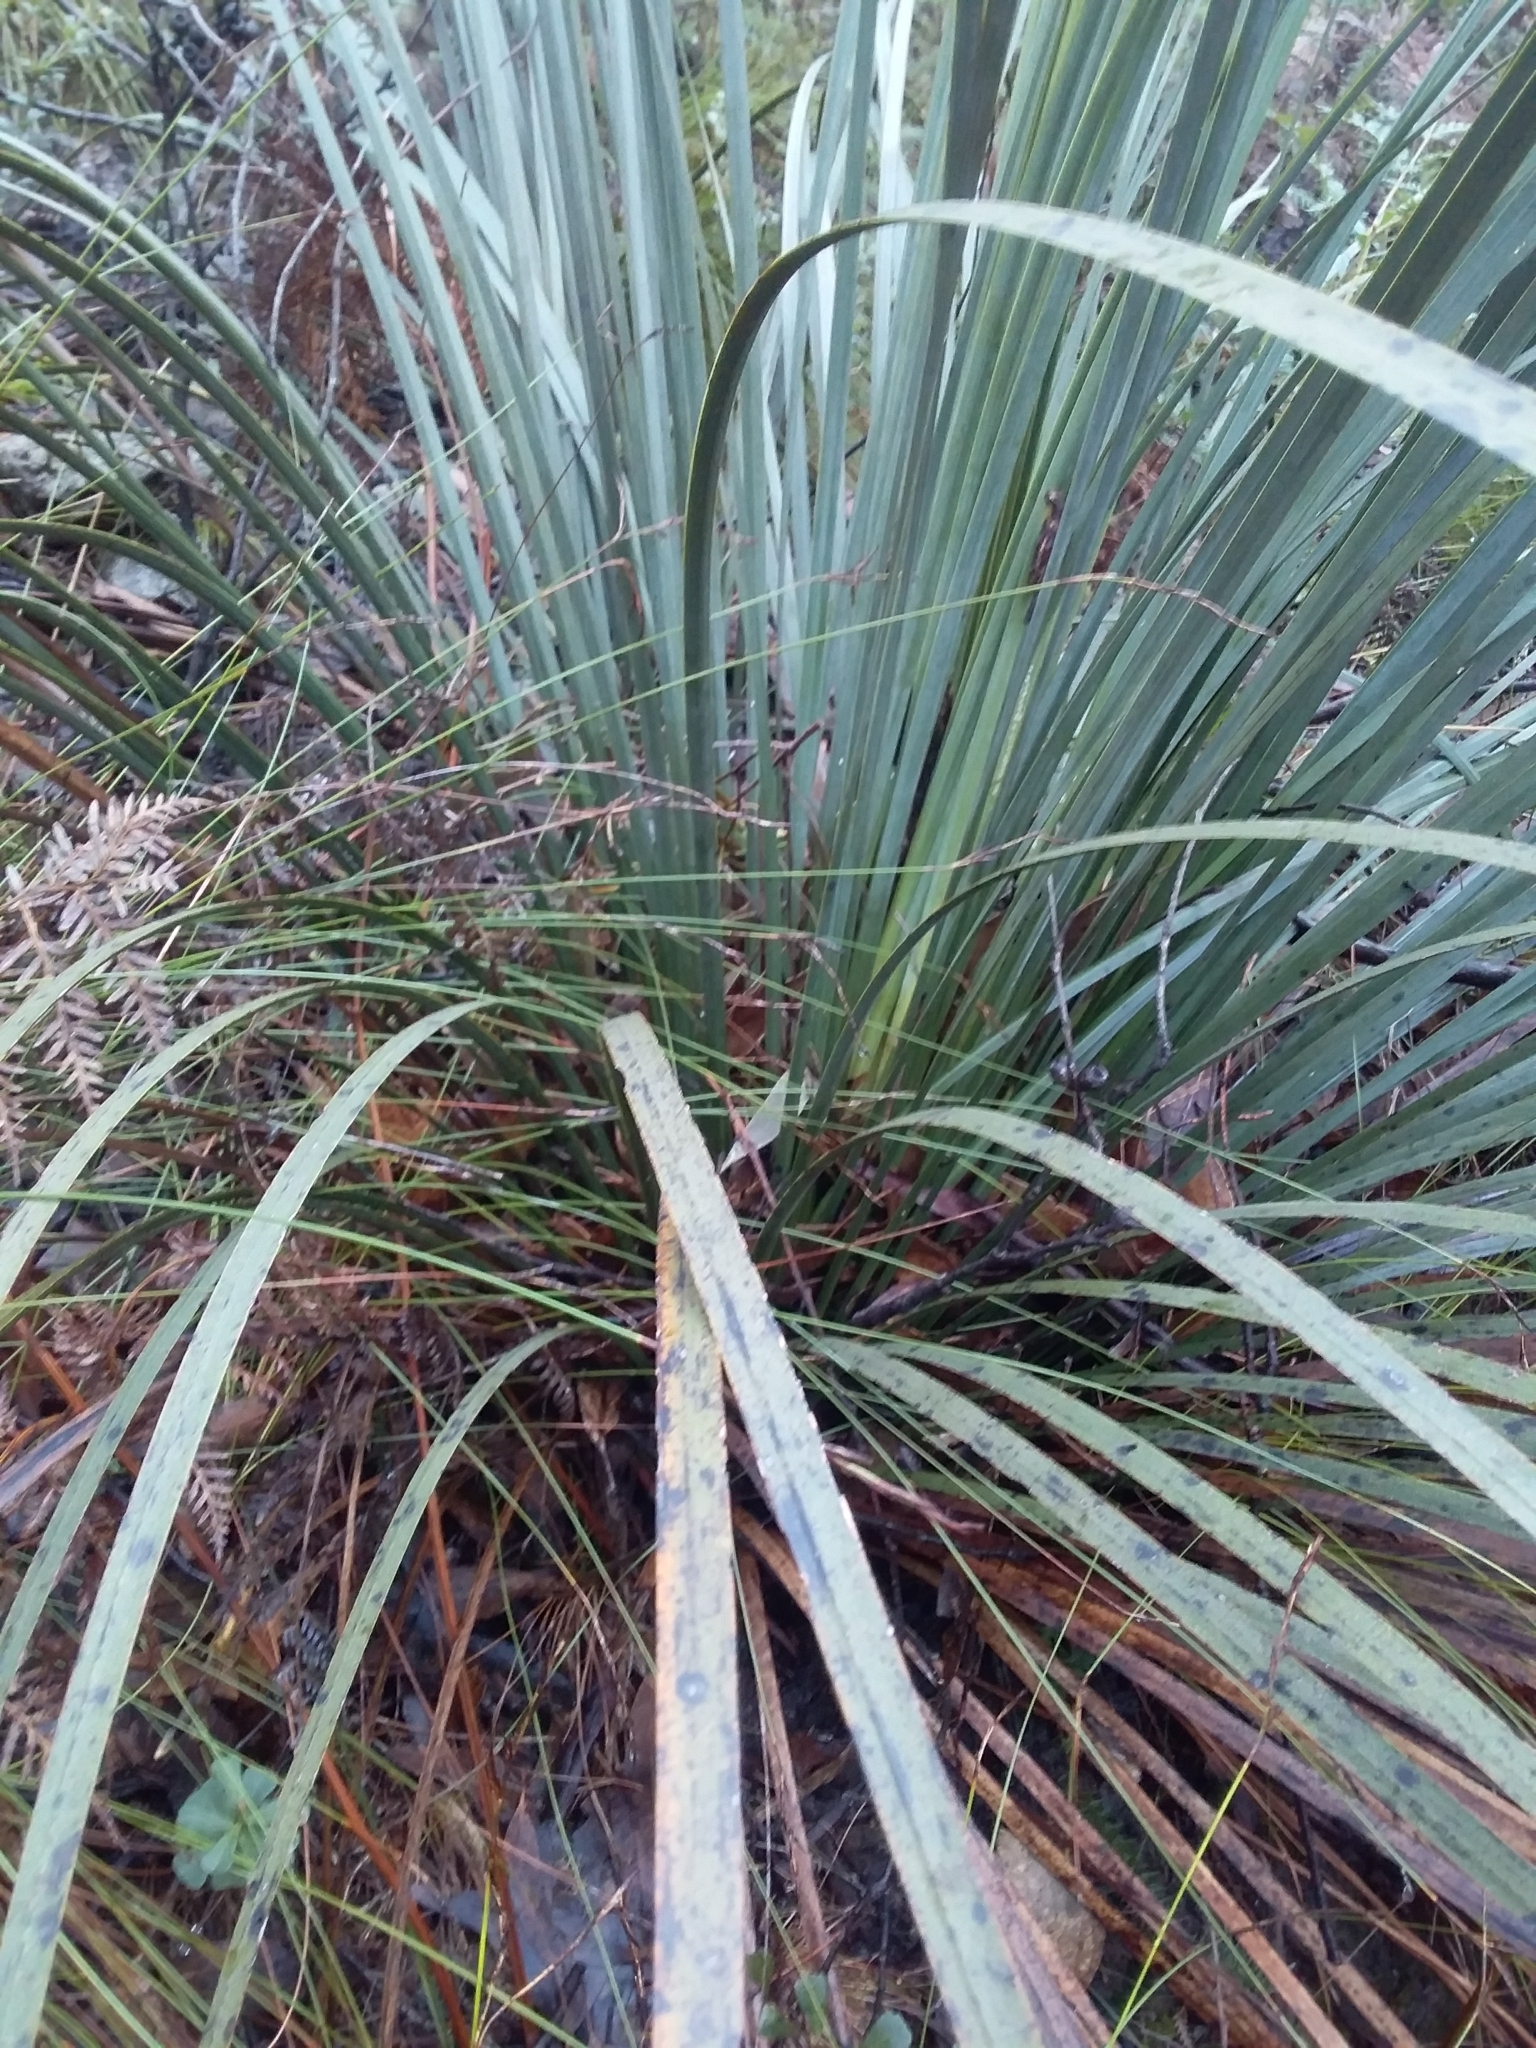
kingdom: Plantae
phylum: Tracheophyta
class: Liliopsida
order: Asparagales
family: Asphodelaceae
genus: Xanthorrhoea
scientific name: Xanthorrhoea semiplana
